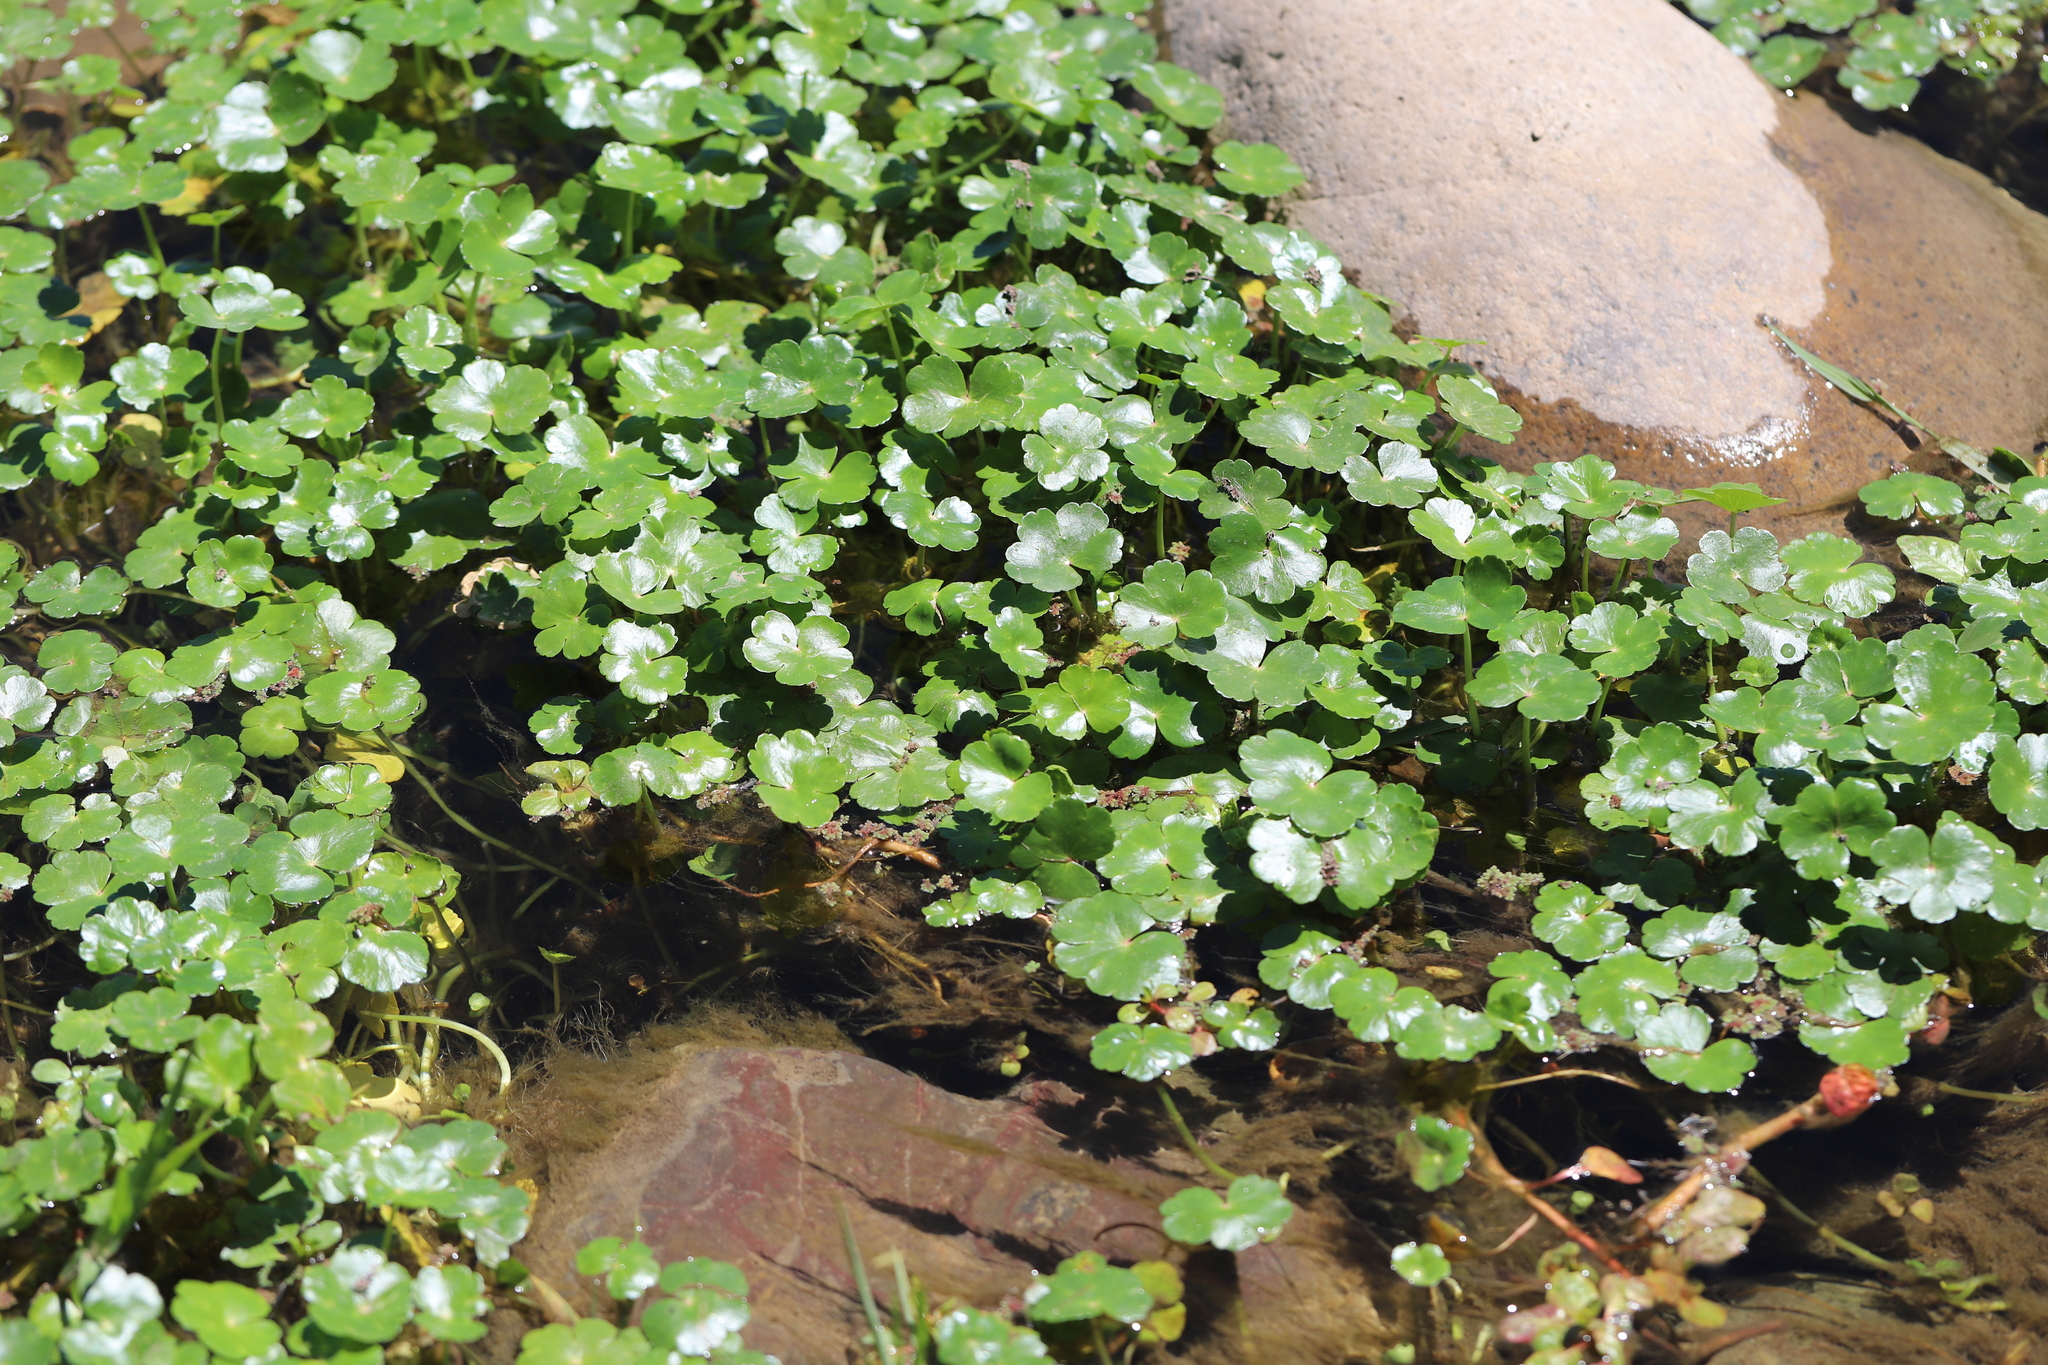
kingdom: Plantae
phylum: Tracheophyta
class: Magnoliopsida
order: Apiales
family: Araliaceae
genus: Hydrocotyle
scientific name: Hydrocotyle ranunculoides
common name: Floating pennywort
